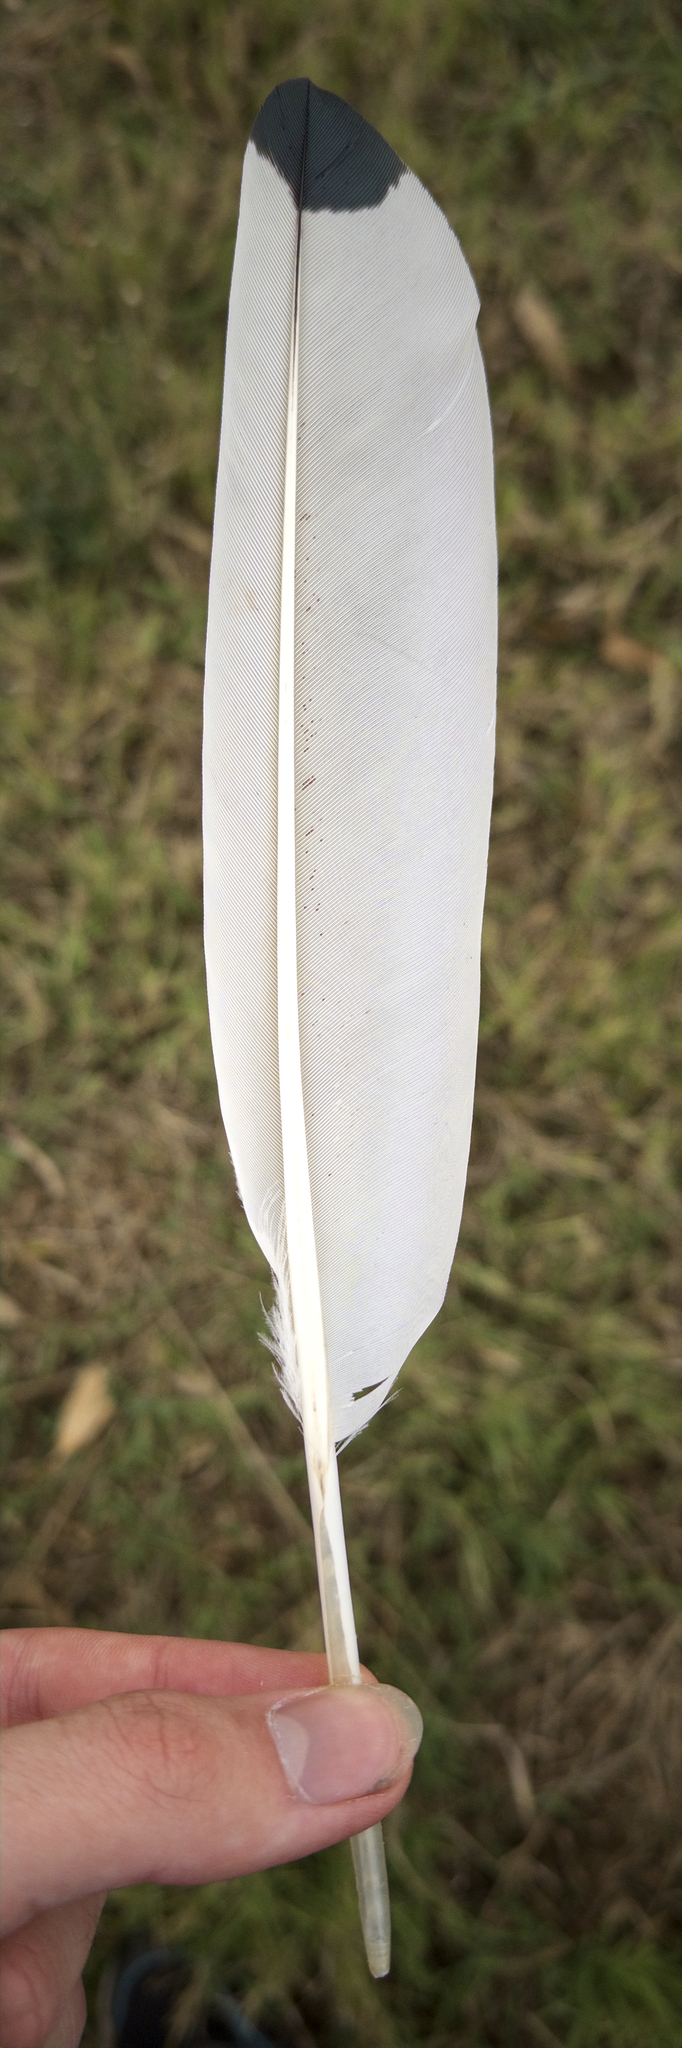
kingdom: Animalia
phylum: Chordata
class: Aves
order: Pelecaniformes
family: Threskiornithidae
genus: Threskiornis
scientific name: Threskiornis molucca
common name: Australian white ibis
